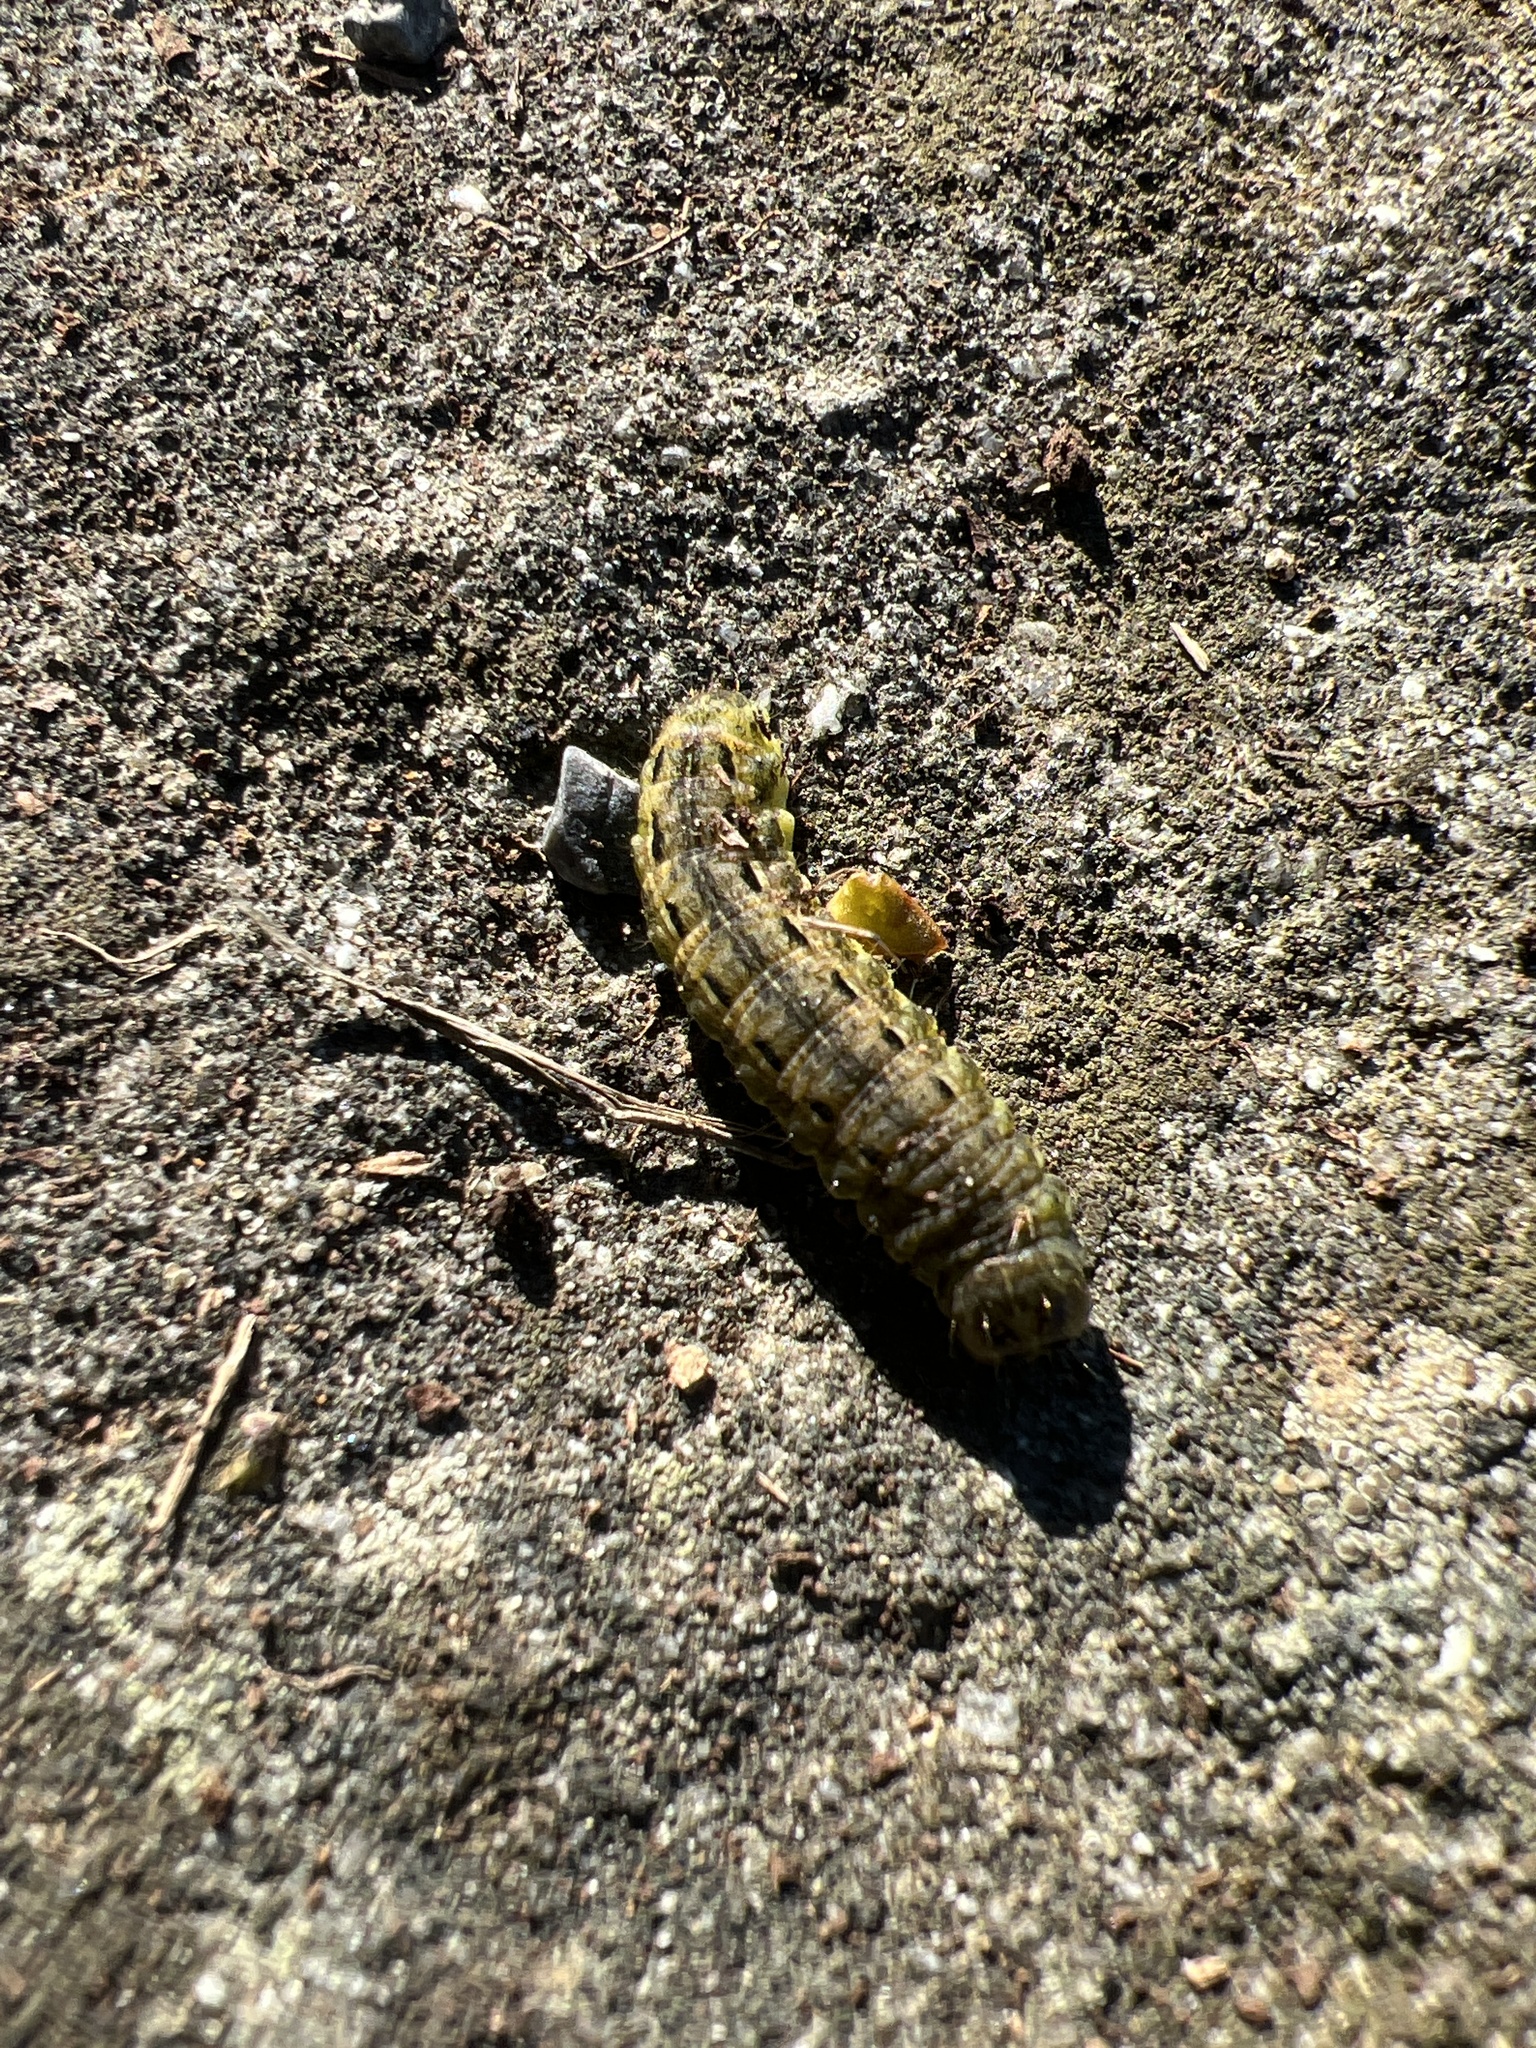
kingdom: Animalia
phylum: Arthropoda
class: Insecta
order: Lepidoptera
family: Noctuidae
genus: Noctua
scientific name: Noctua pronuba
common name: Large yellow underwing
